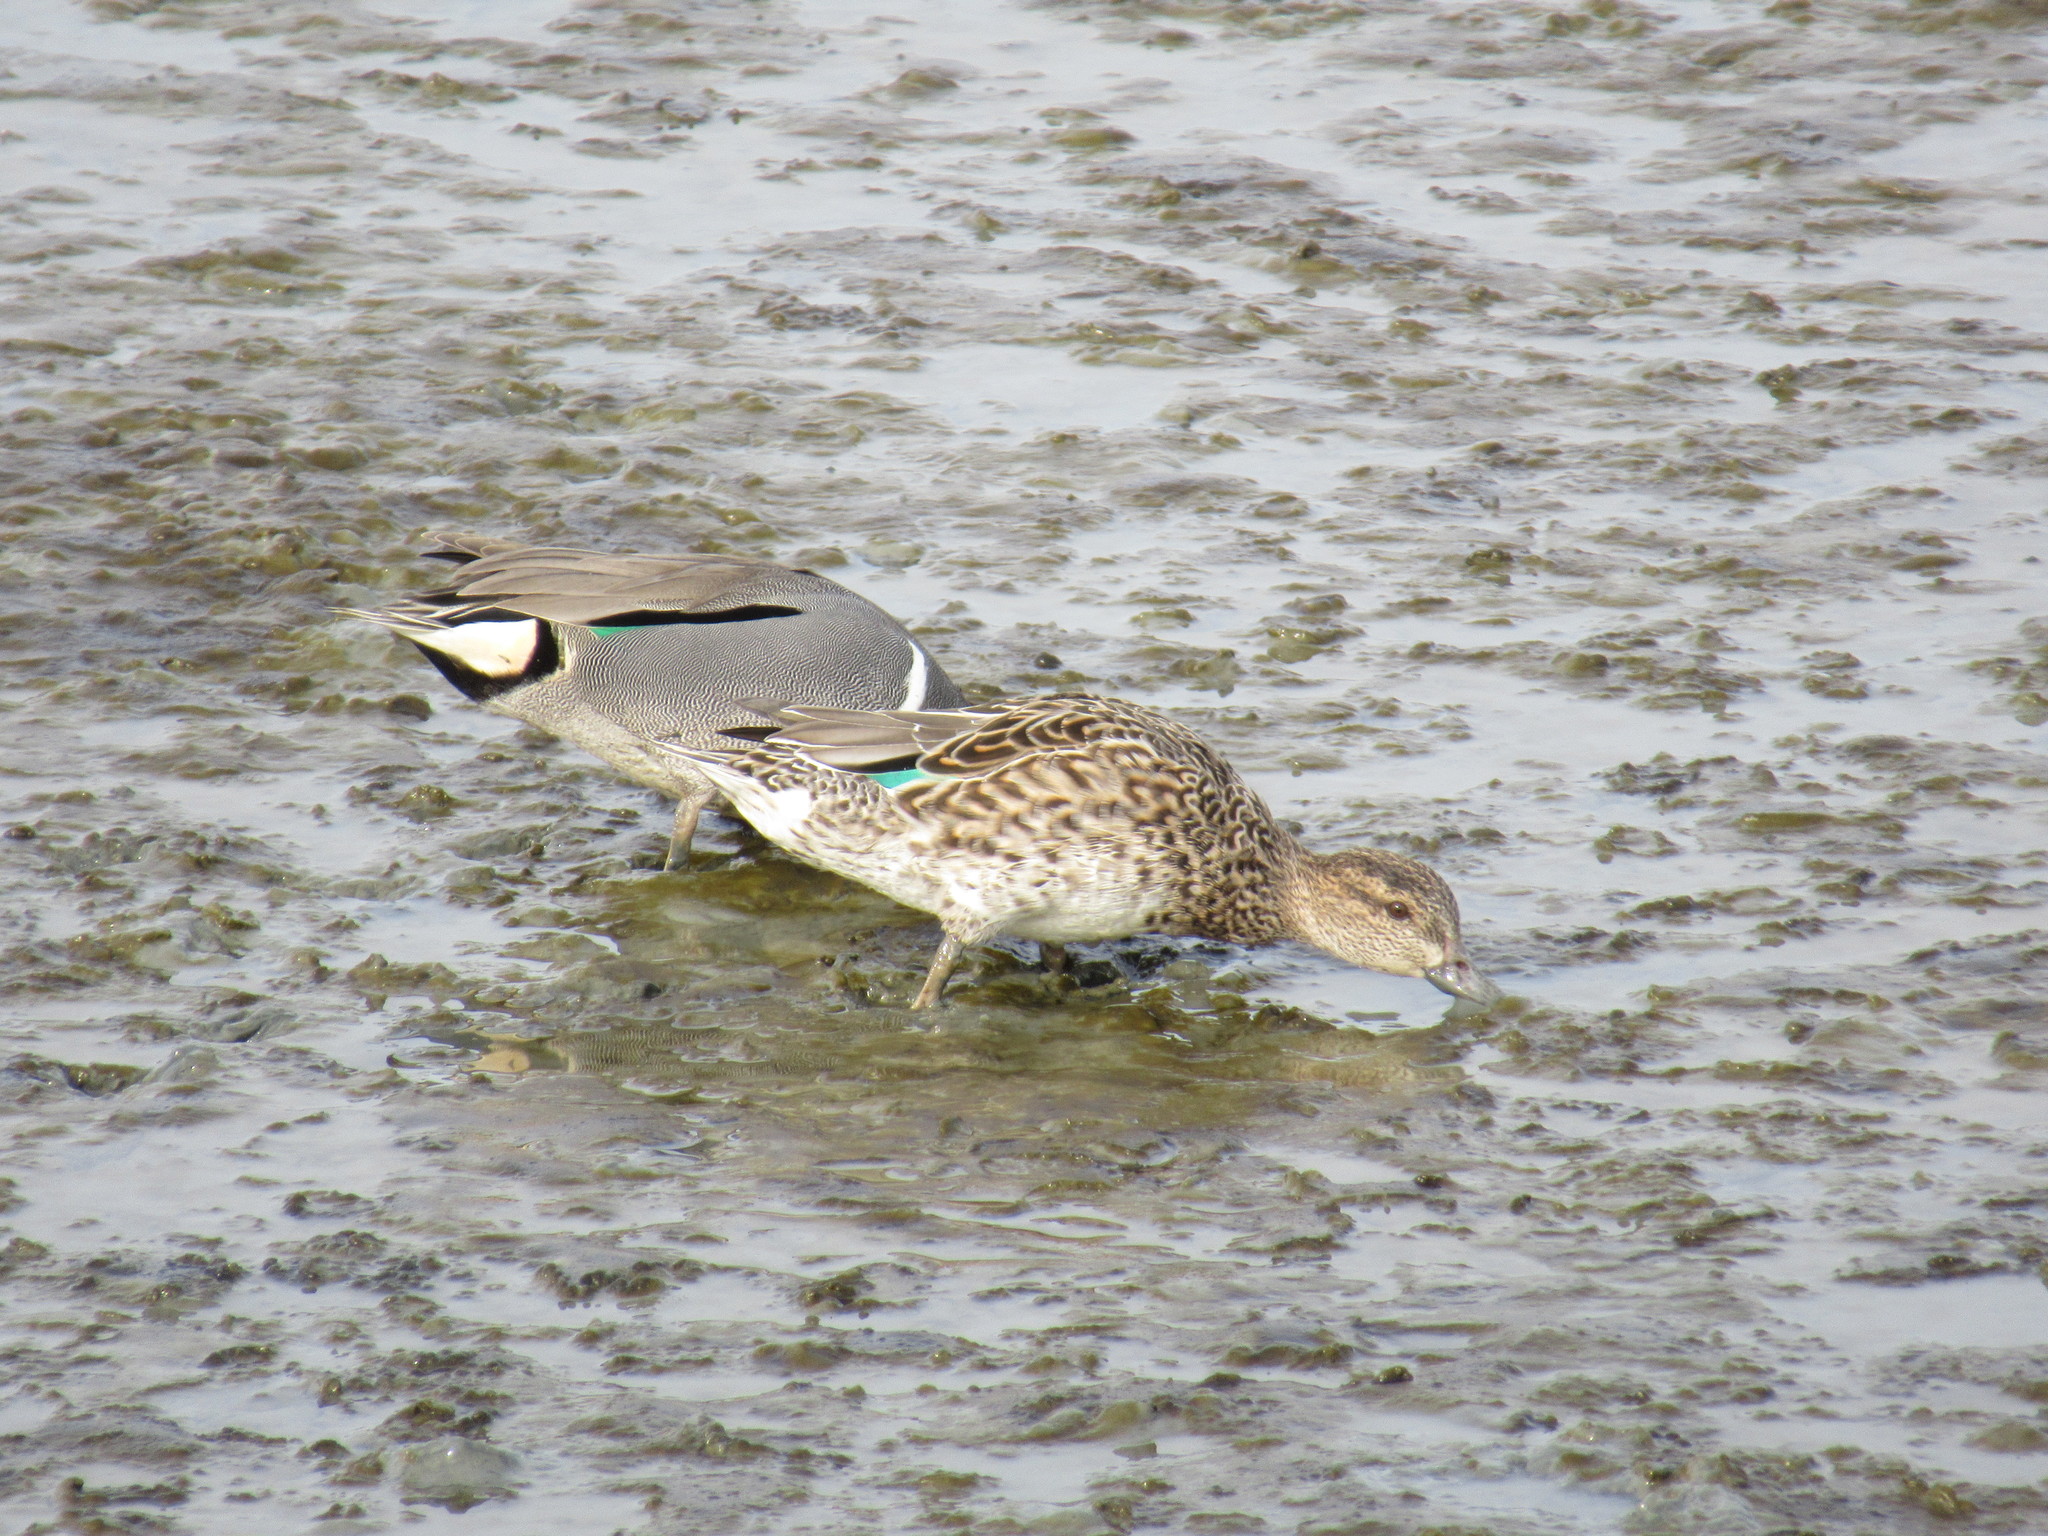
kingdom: Animalia
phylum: Chordata
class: Aves
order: Anseriformes
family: Anatidae
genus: Anas
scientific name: Anas crecca
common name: Eurasian teal
